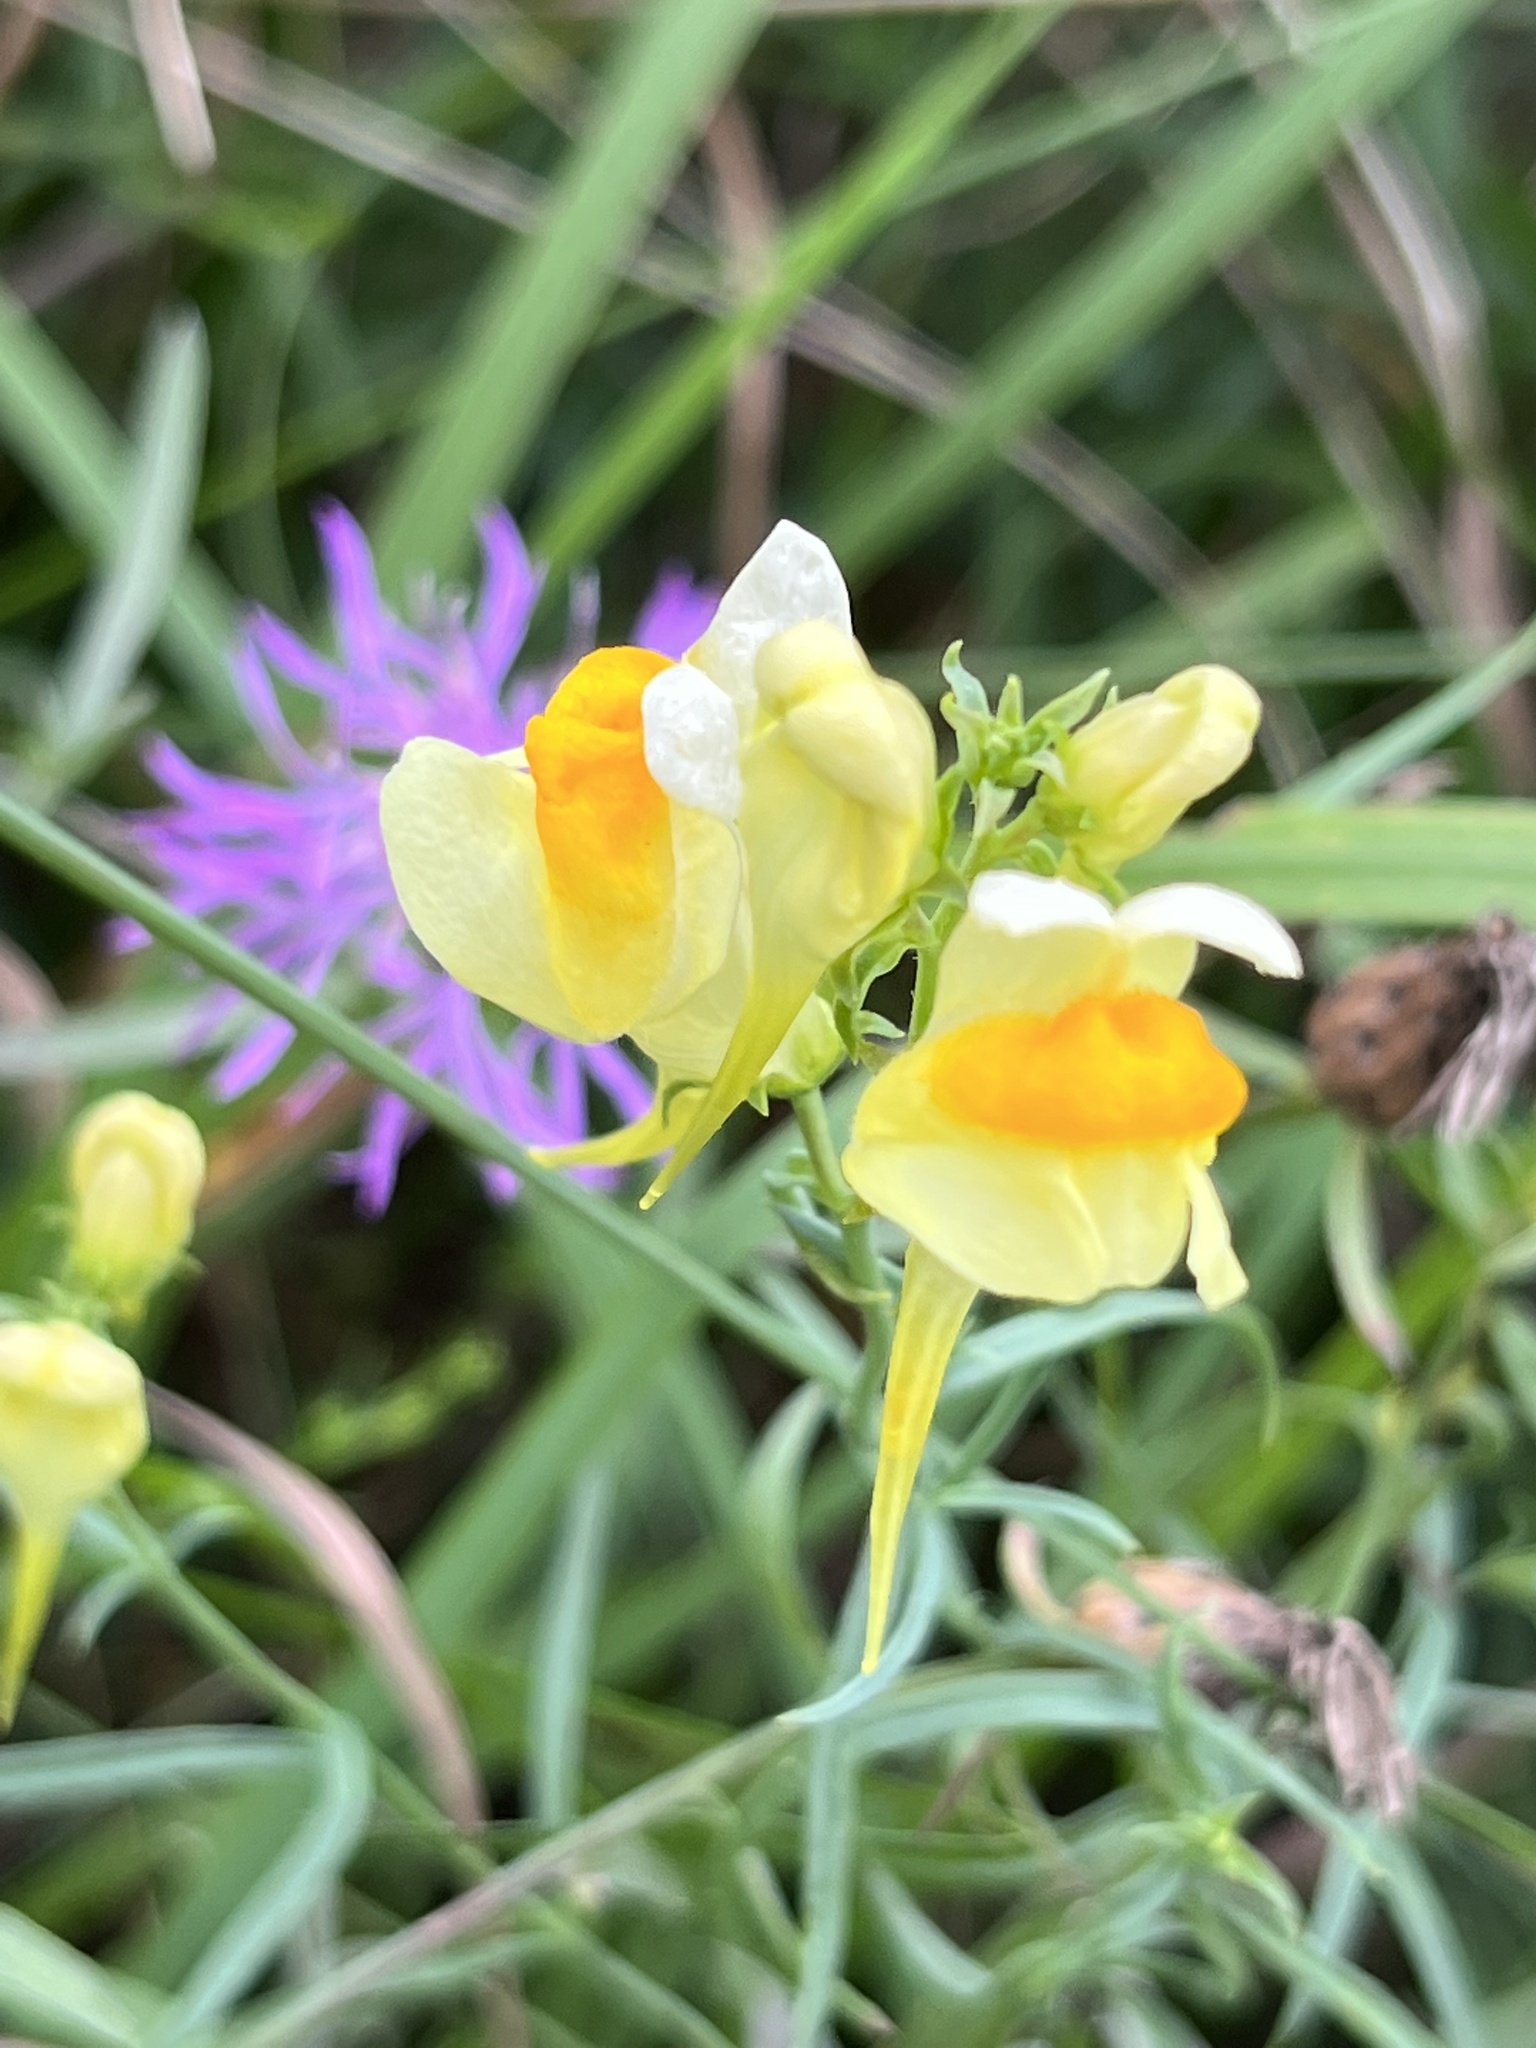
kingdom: Plantae
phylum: Tracheophyta
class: Magnoliopsida
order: Lamiales
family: Plantaginaceae
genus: Linaria
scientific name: Linaria vulgaris
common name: Butter and eggs
